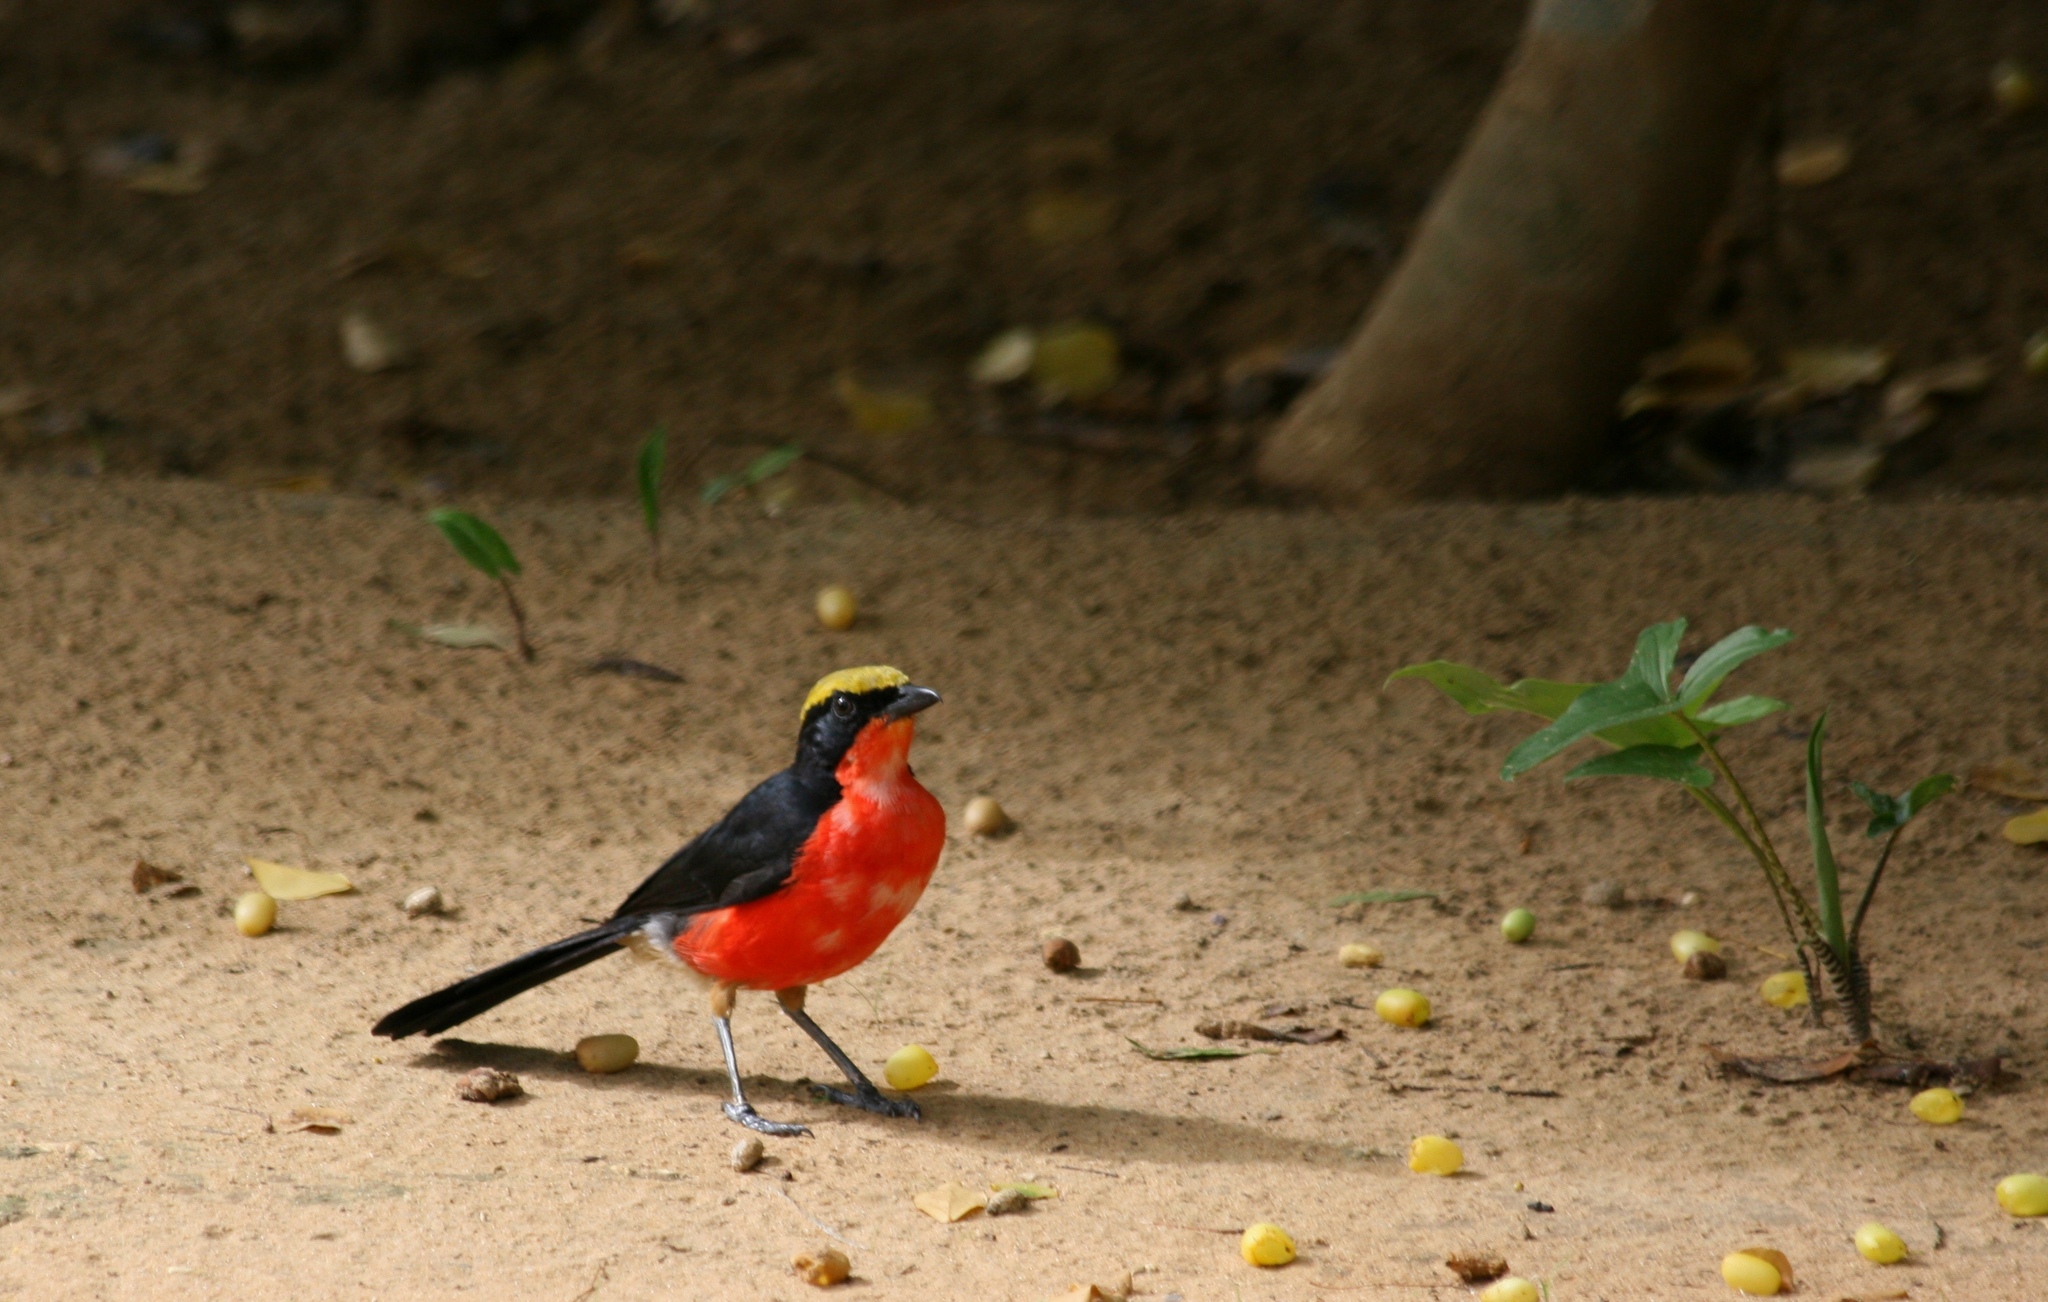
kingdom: Animalia
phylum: Chordata
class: Aves
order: Passeriformes
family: Malaconotidae
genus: Laniarius
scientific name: Laniarius barbarus
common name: Yellow-crowned gonolek
